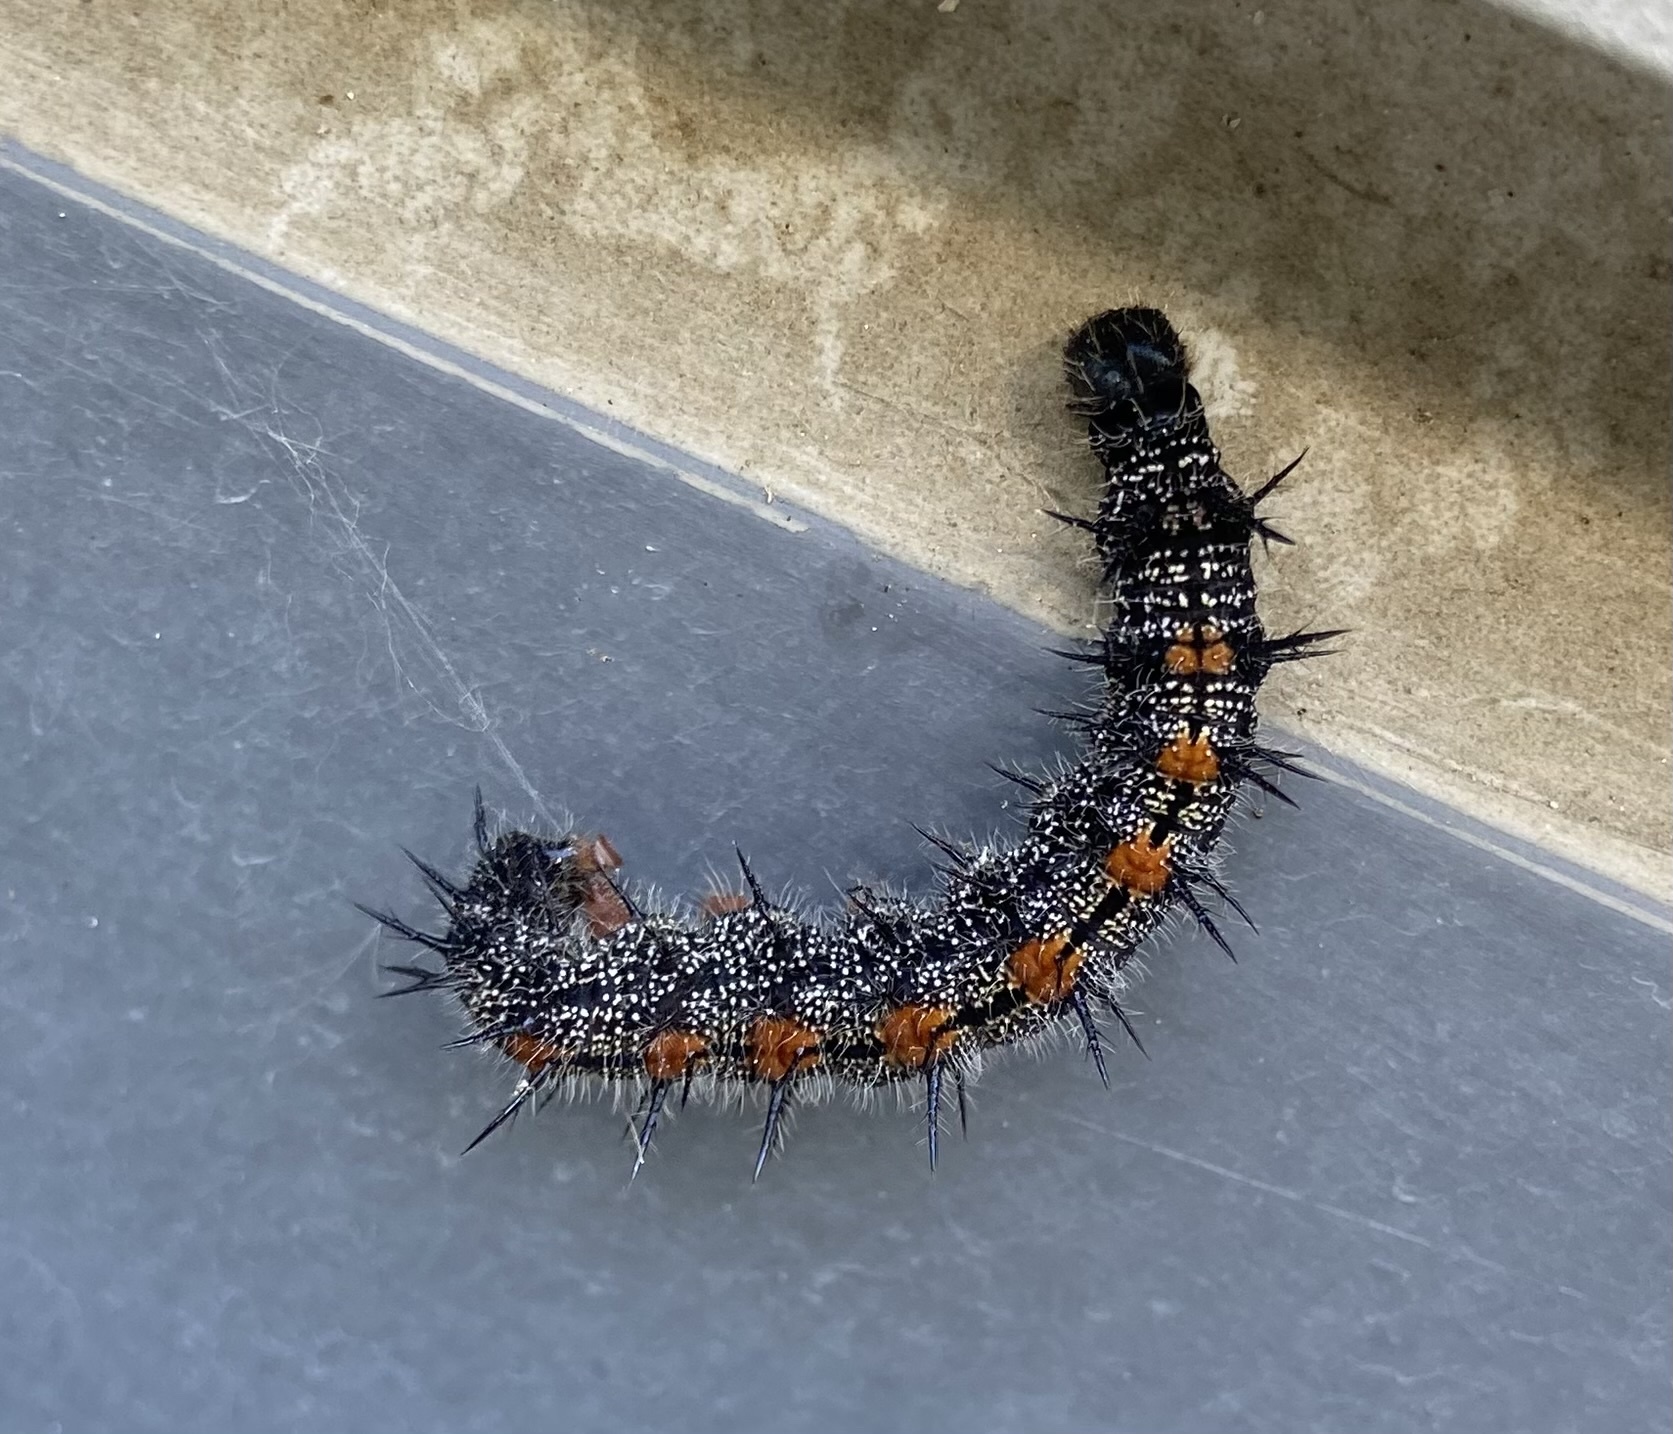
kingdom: Animalia
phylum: Arthropoda
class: Insecta
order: Lepidoptera
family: Nymphalidae
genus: Nymphalis
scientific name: Nymphalis antiopa
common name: Camberwell beauty
